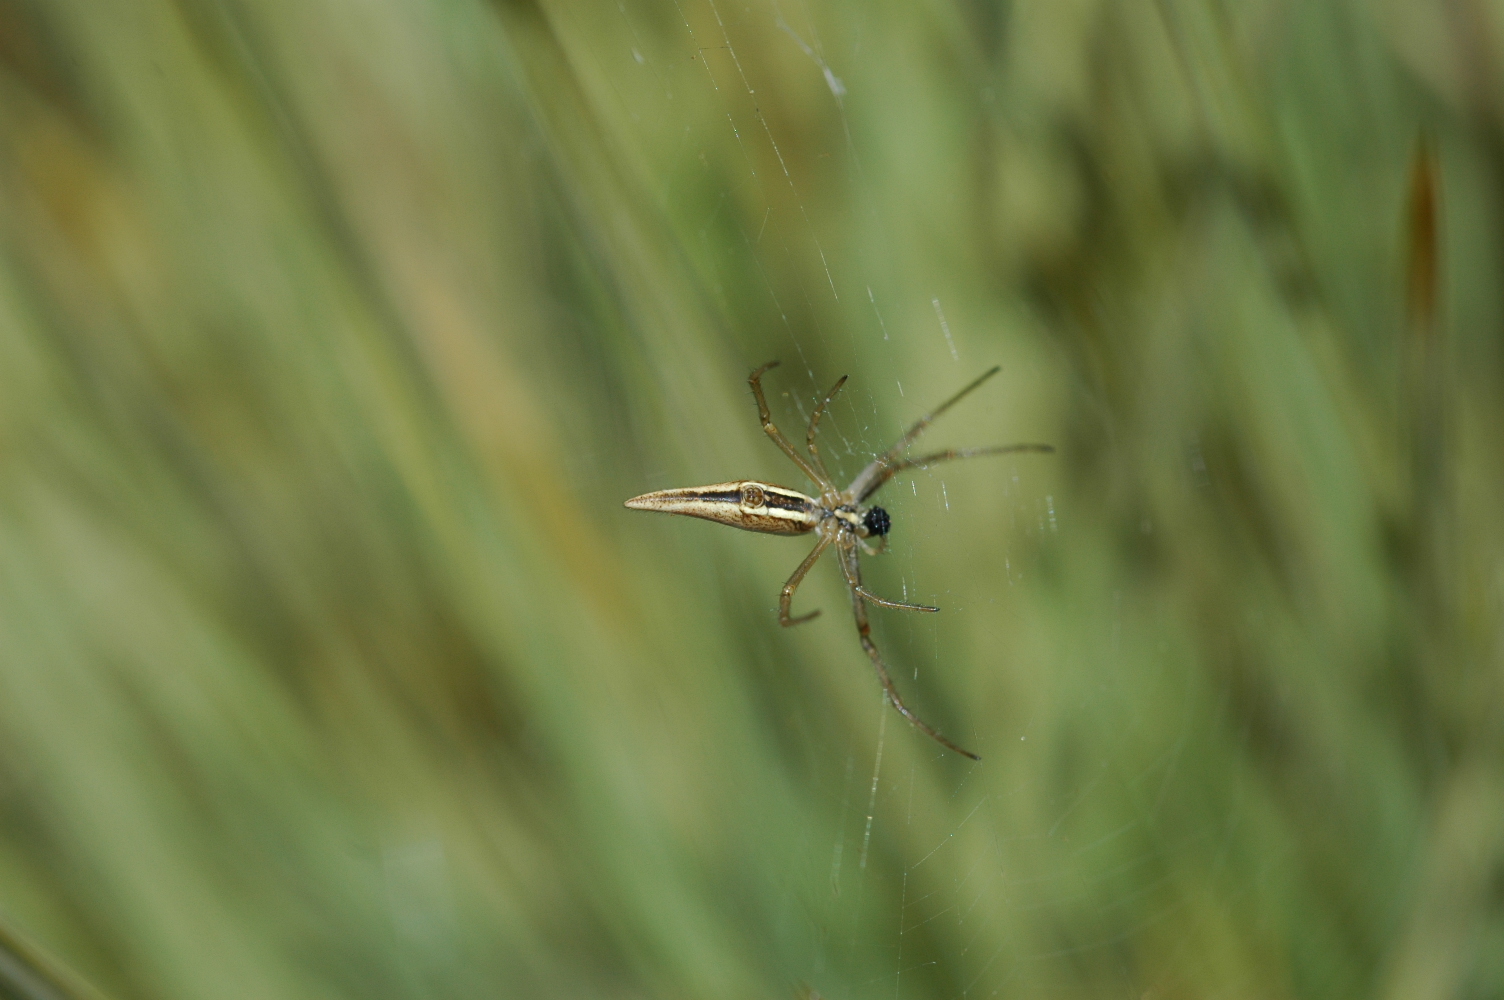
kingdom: Animalia
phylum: Arthropoda
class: Arachnida
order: Araneae
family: Araneidae
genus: Argiope
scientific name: Argiope protensa
